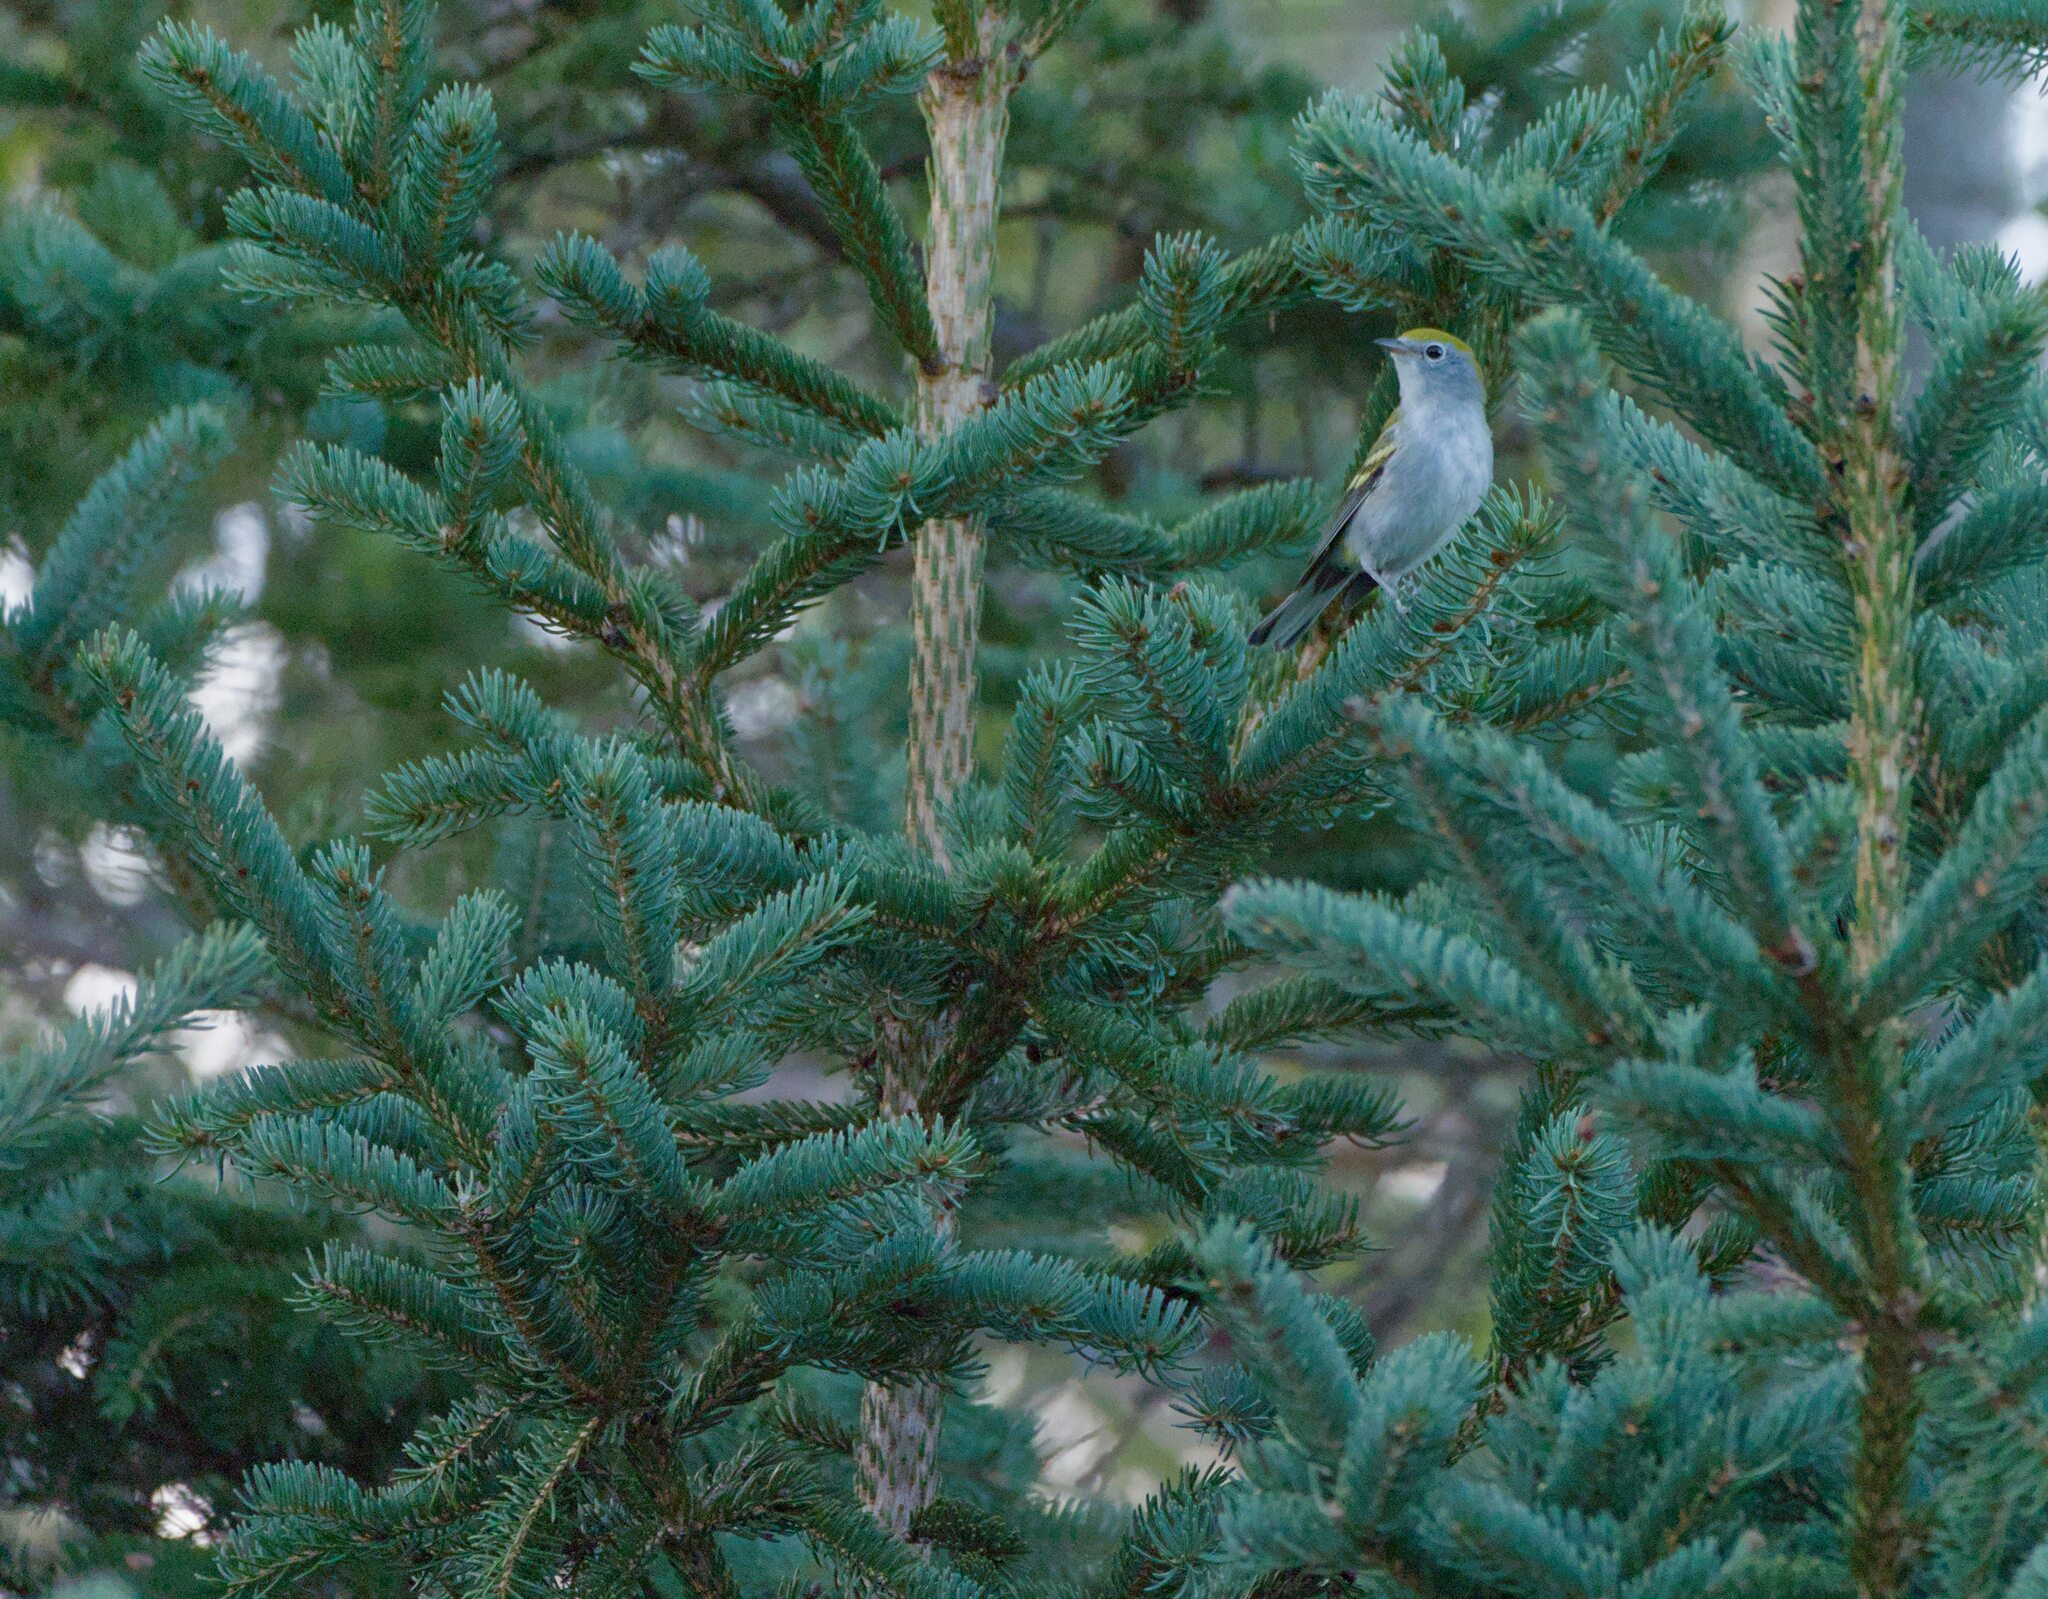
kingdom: Animalia
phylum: Chordata
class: Aves
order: Passeriformes
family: Parulidae
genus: Setophaga
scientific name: Setophaga pensylvanica
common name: Chestnut-sided warbler
